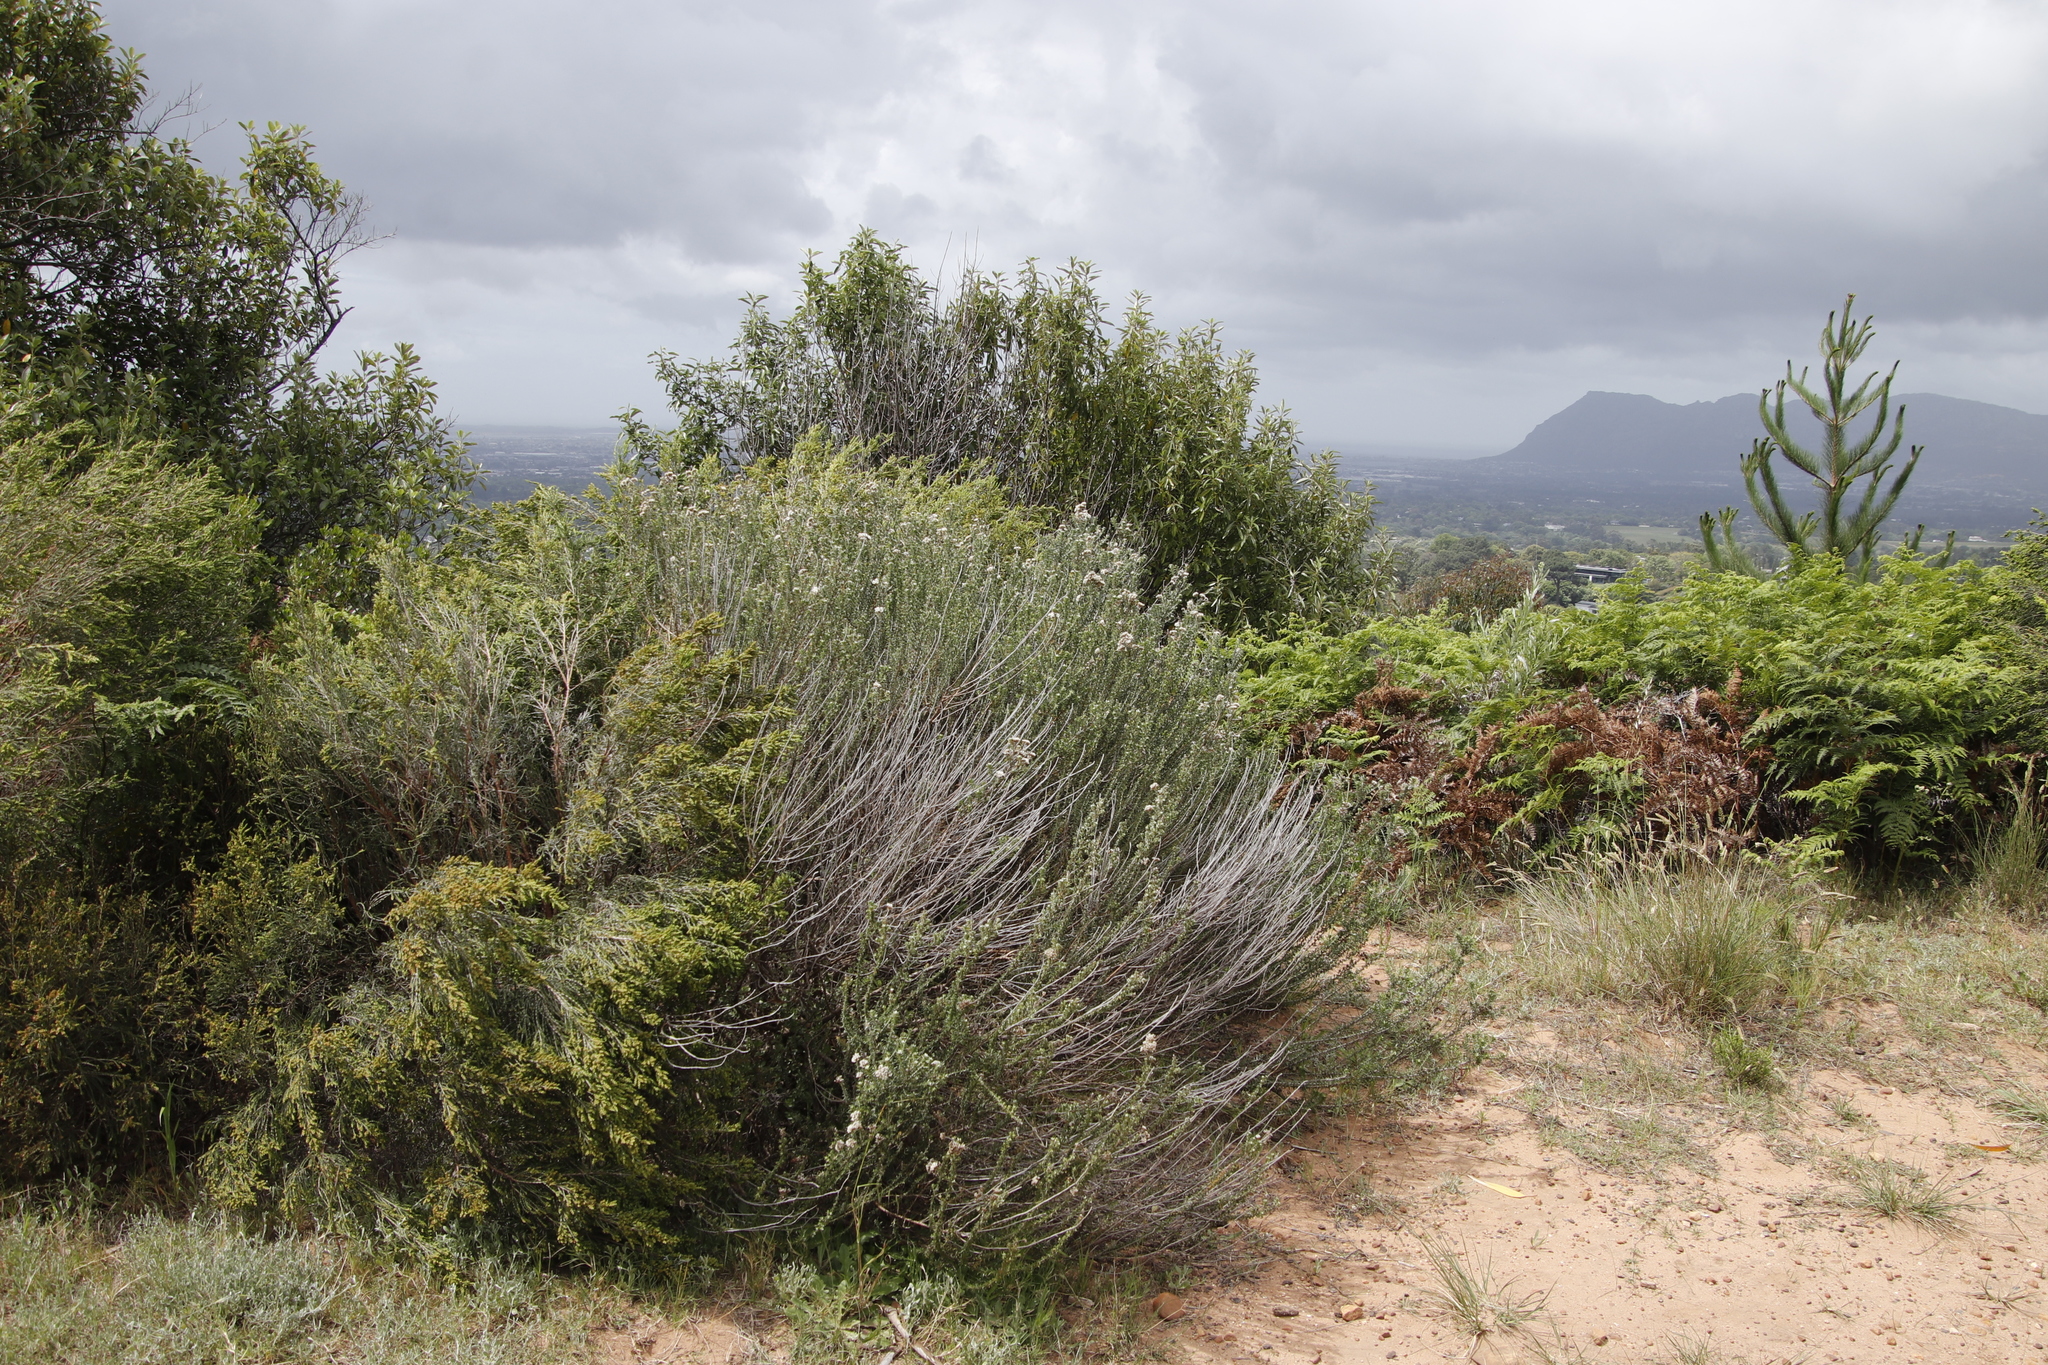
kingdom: Plantae
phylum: Tracheophyta
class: Magnoliopsida
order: Asterales
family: Asteraceae
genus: Metalasia
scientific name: Metalasia densa
